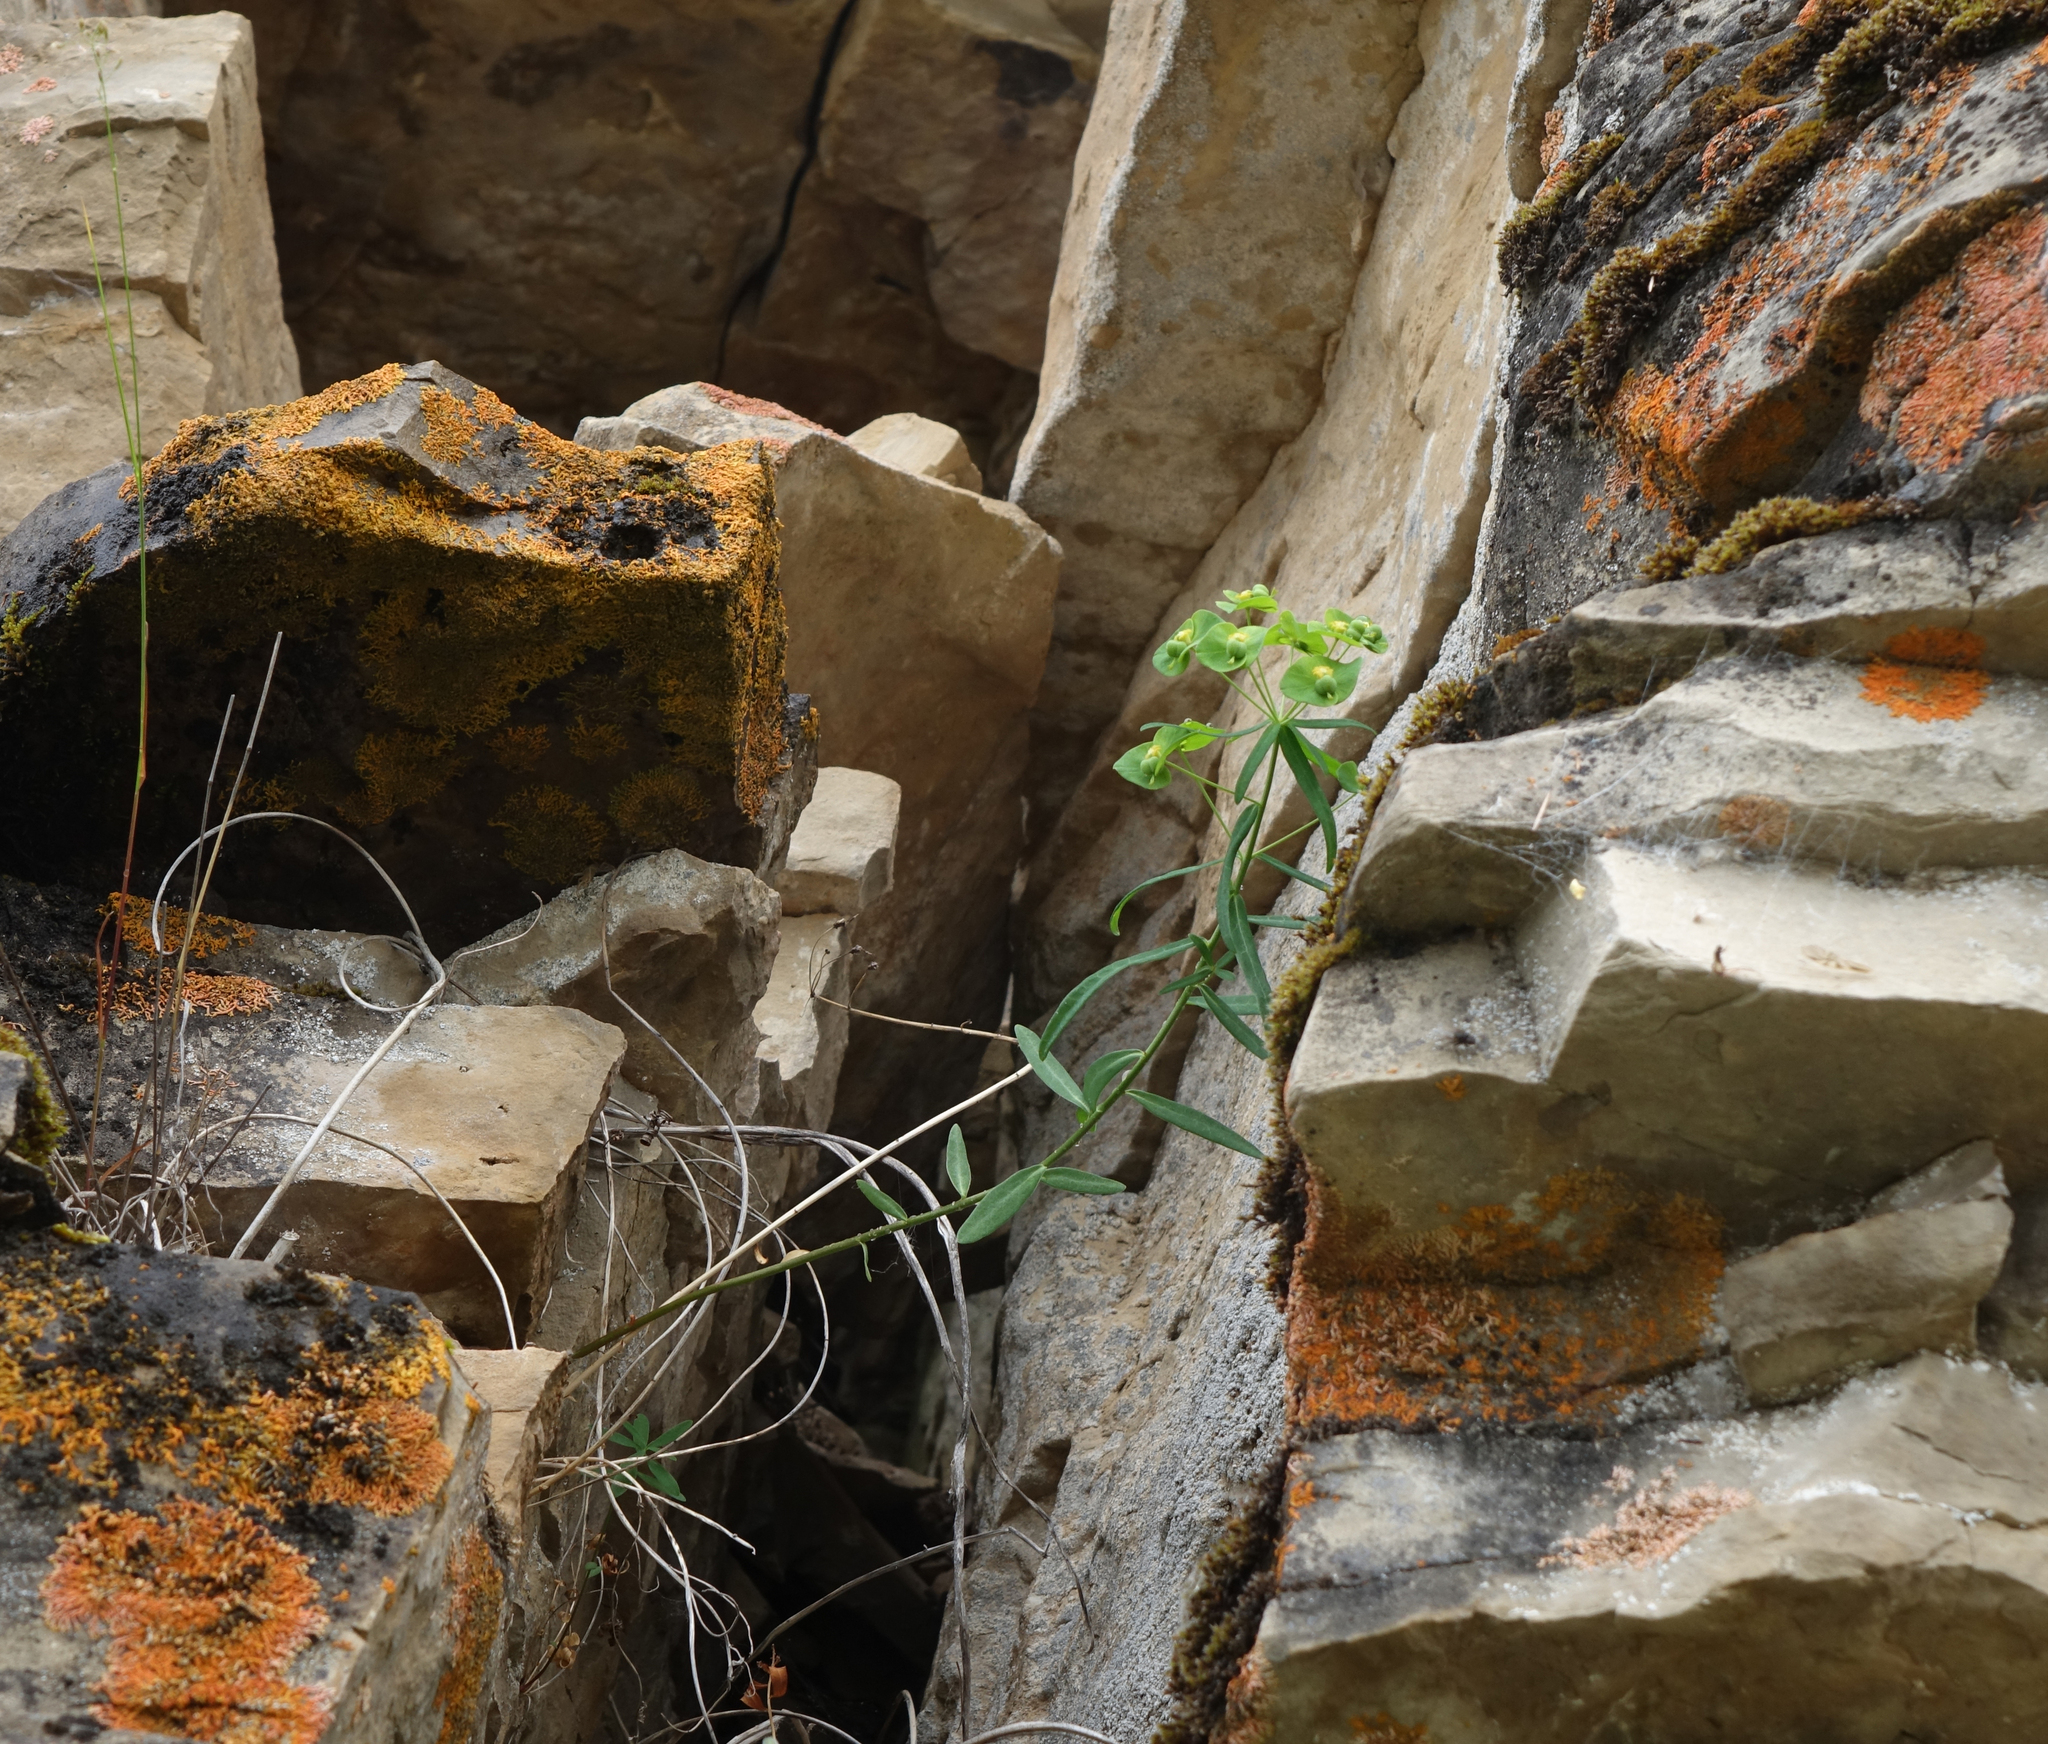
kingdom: Plantae
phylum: Tracheophyta
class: Magnoliopsida
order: Malpighiales
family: Euphorbiaceae
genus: Euphorbia
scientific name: Euphorbia borealis
